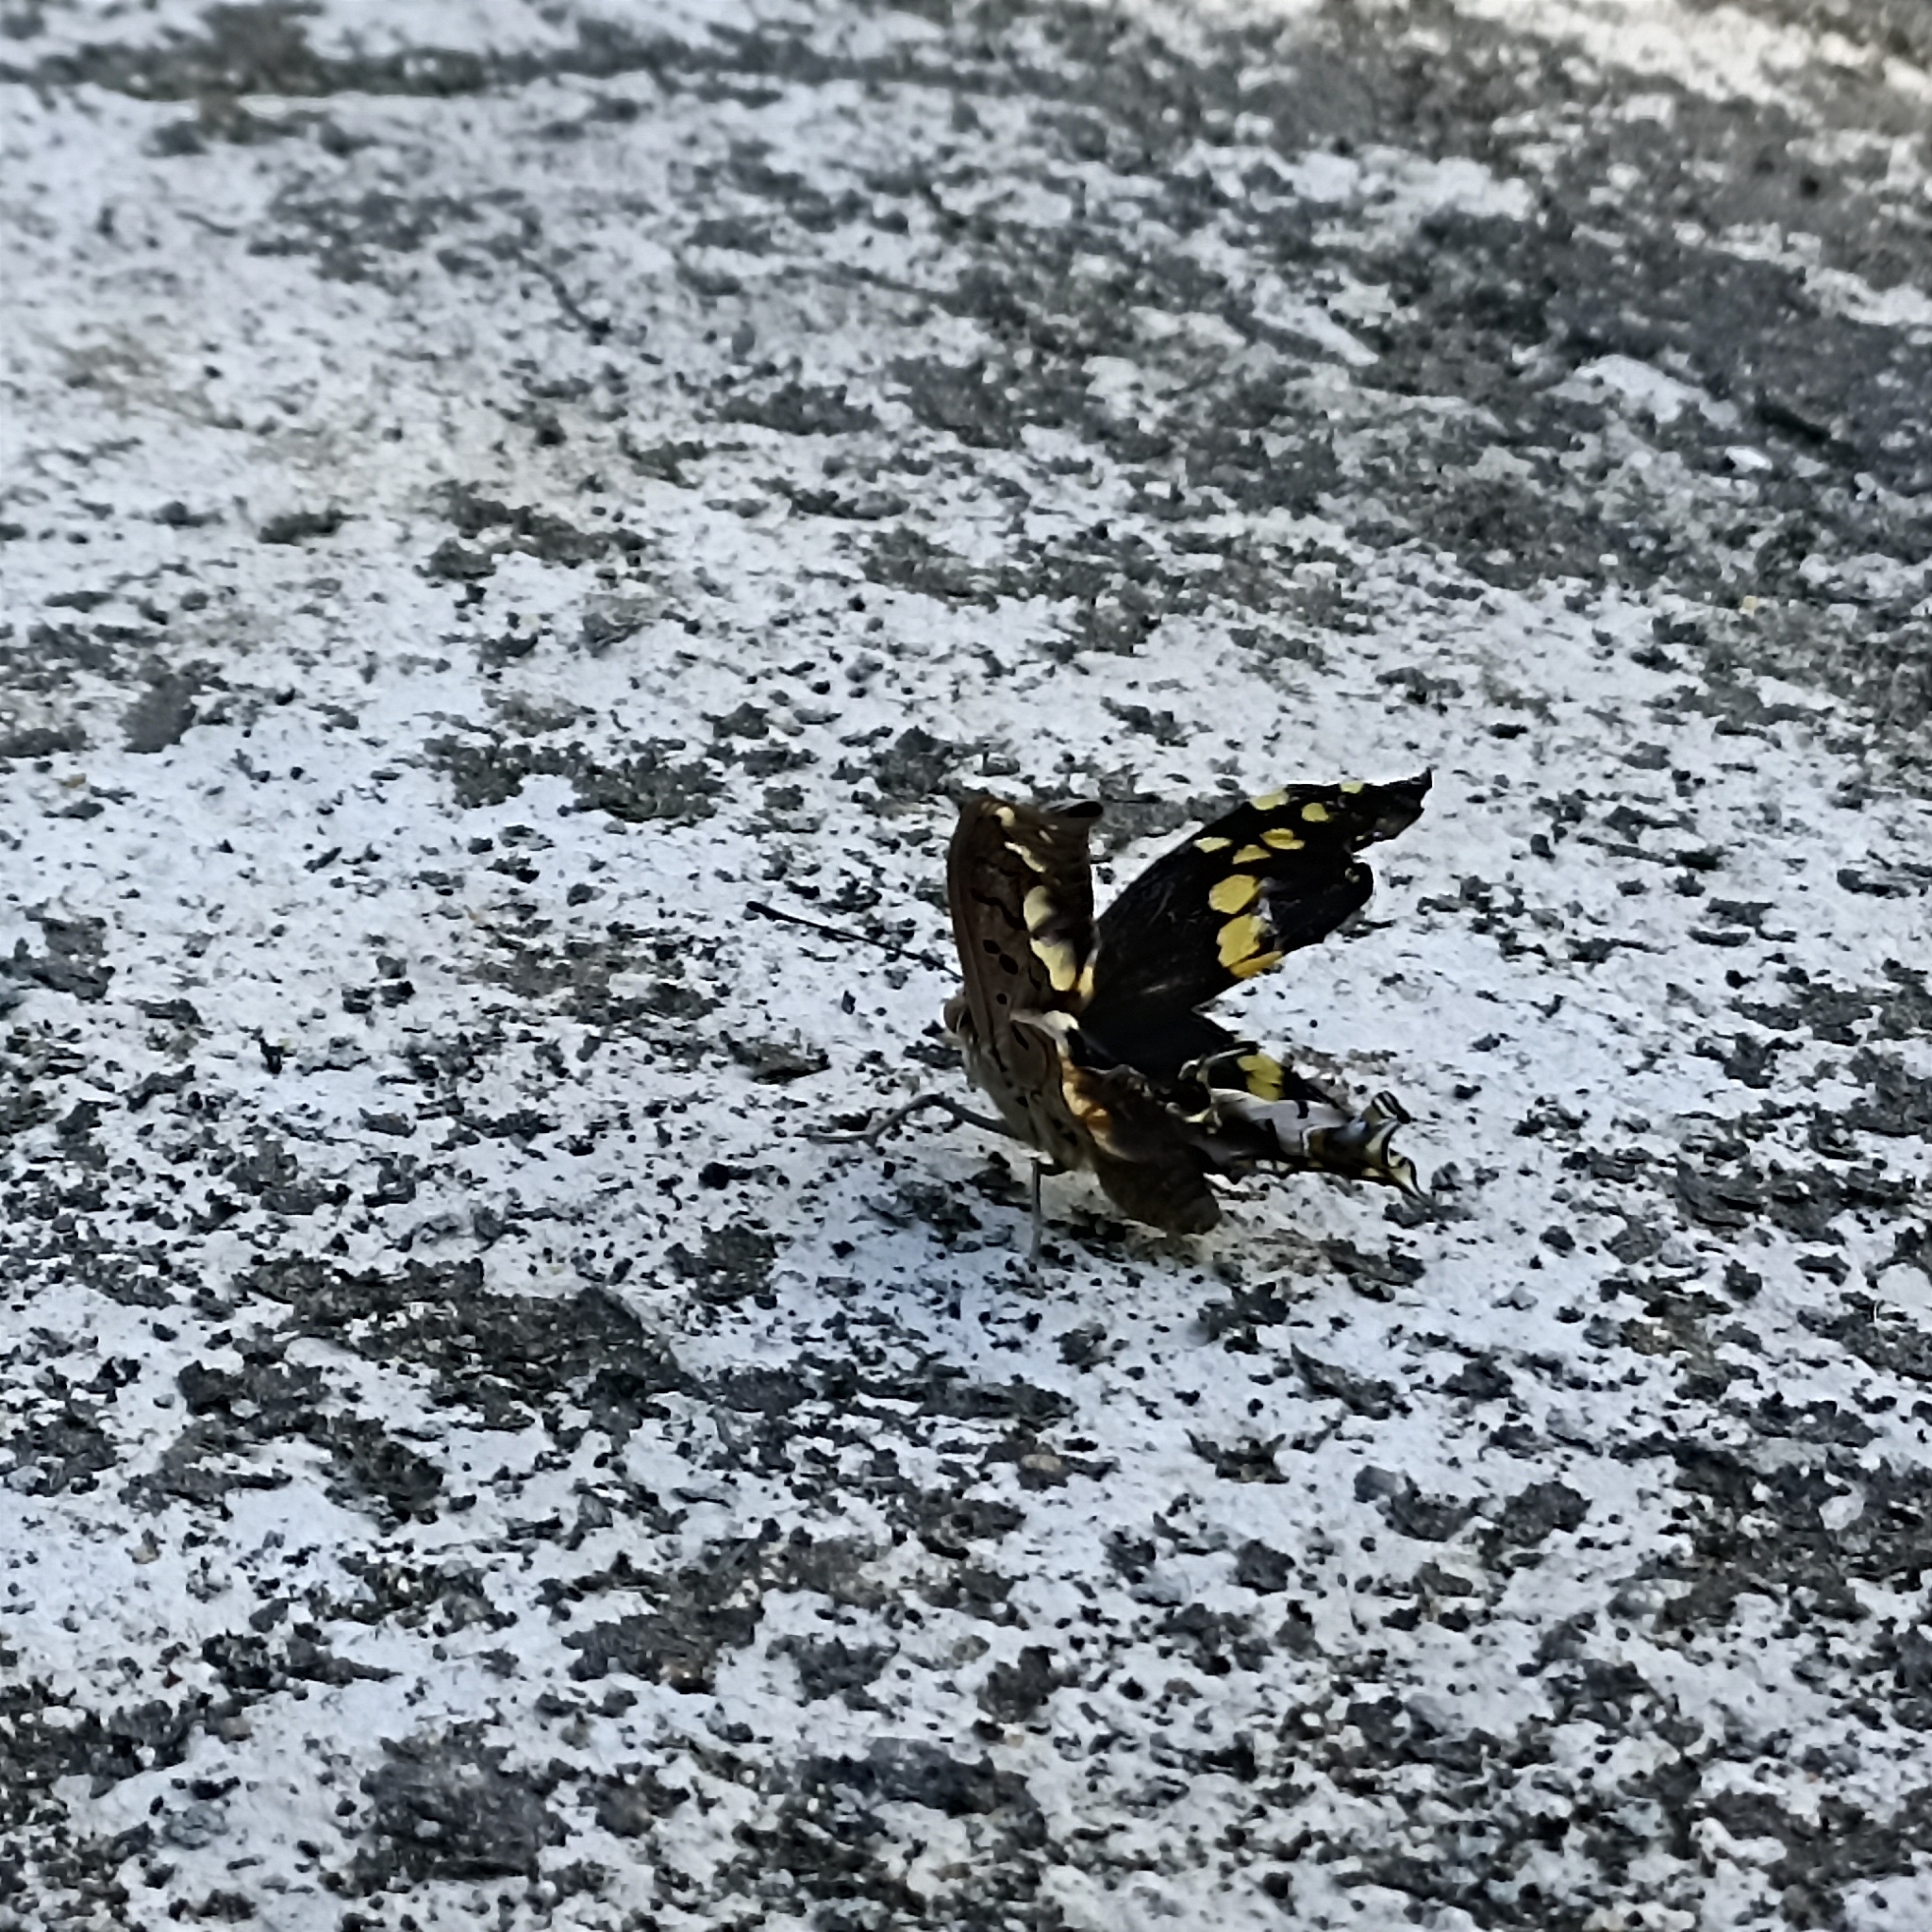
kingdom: Animalia
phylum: Arthropoda
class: Insecta
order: Lepidoptera
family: Nymphalidae
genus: Charaxes
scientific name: Charaxes solon
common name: Black rajah
